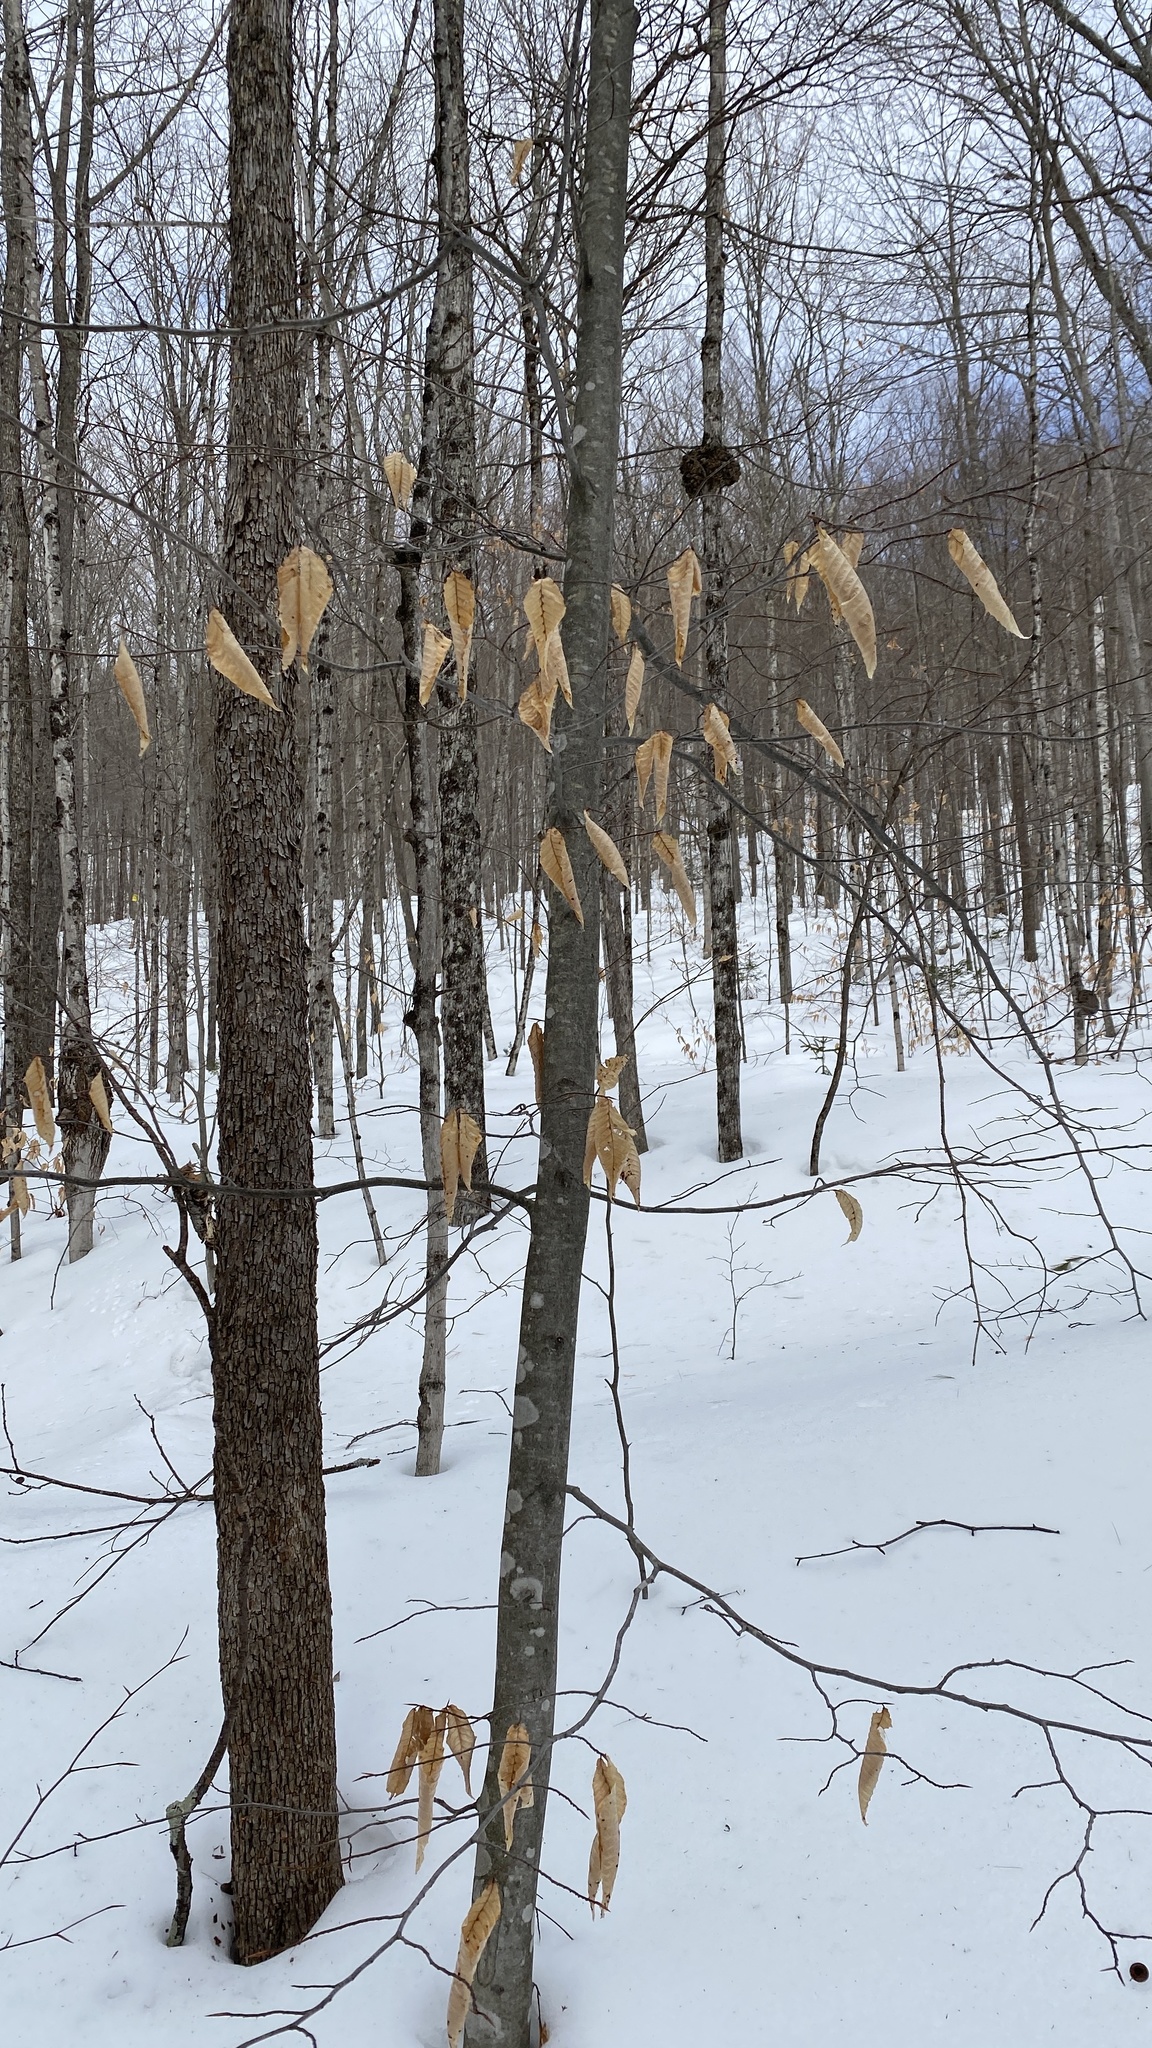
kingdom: Plantae
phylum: Tracheophyta
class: Magnoliopsida
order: Fagales
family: Fagaceae
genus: Fagus
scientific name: Fagus grandifolia
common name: American beech
